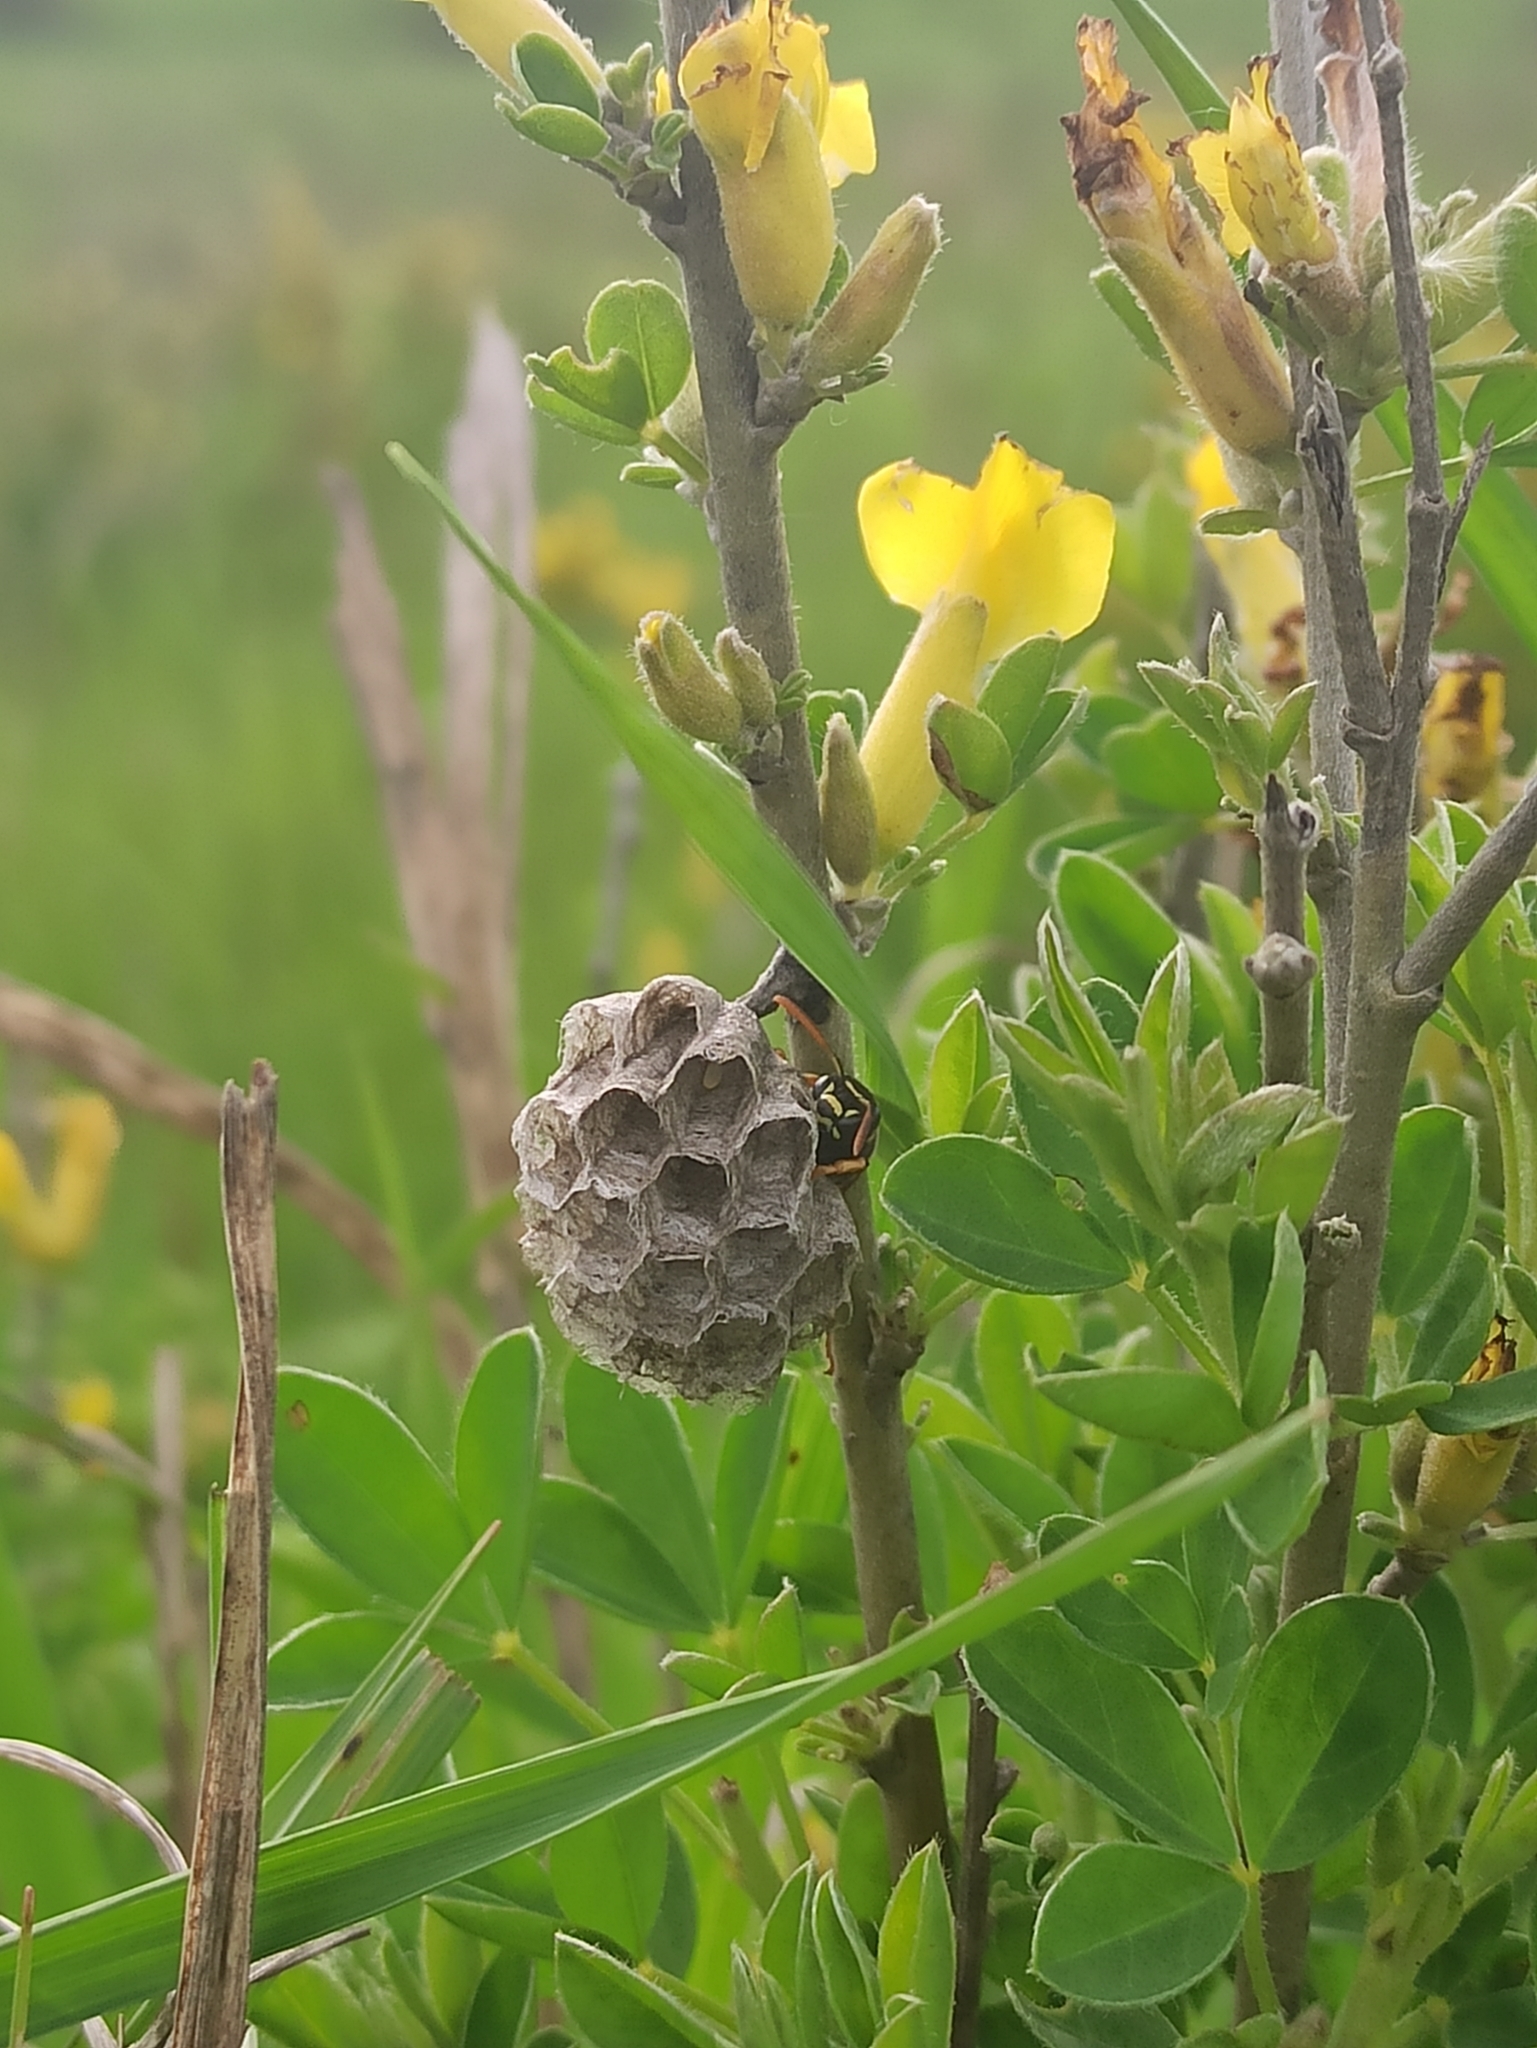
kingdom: Animalia
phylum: Arthropoda
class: Insecta
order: Hymenoptera
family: Eumenidae
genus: Polistes
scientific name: Polistes nimpha
